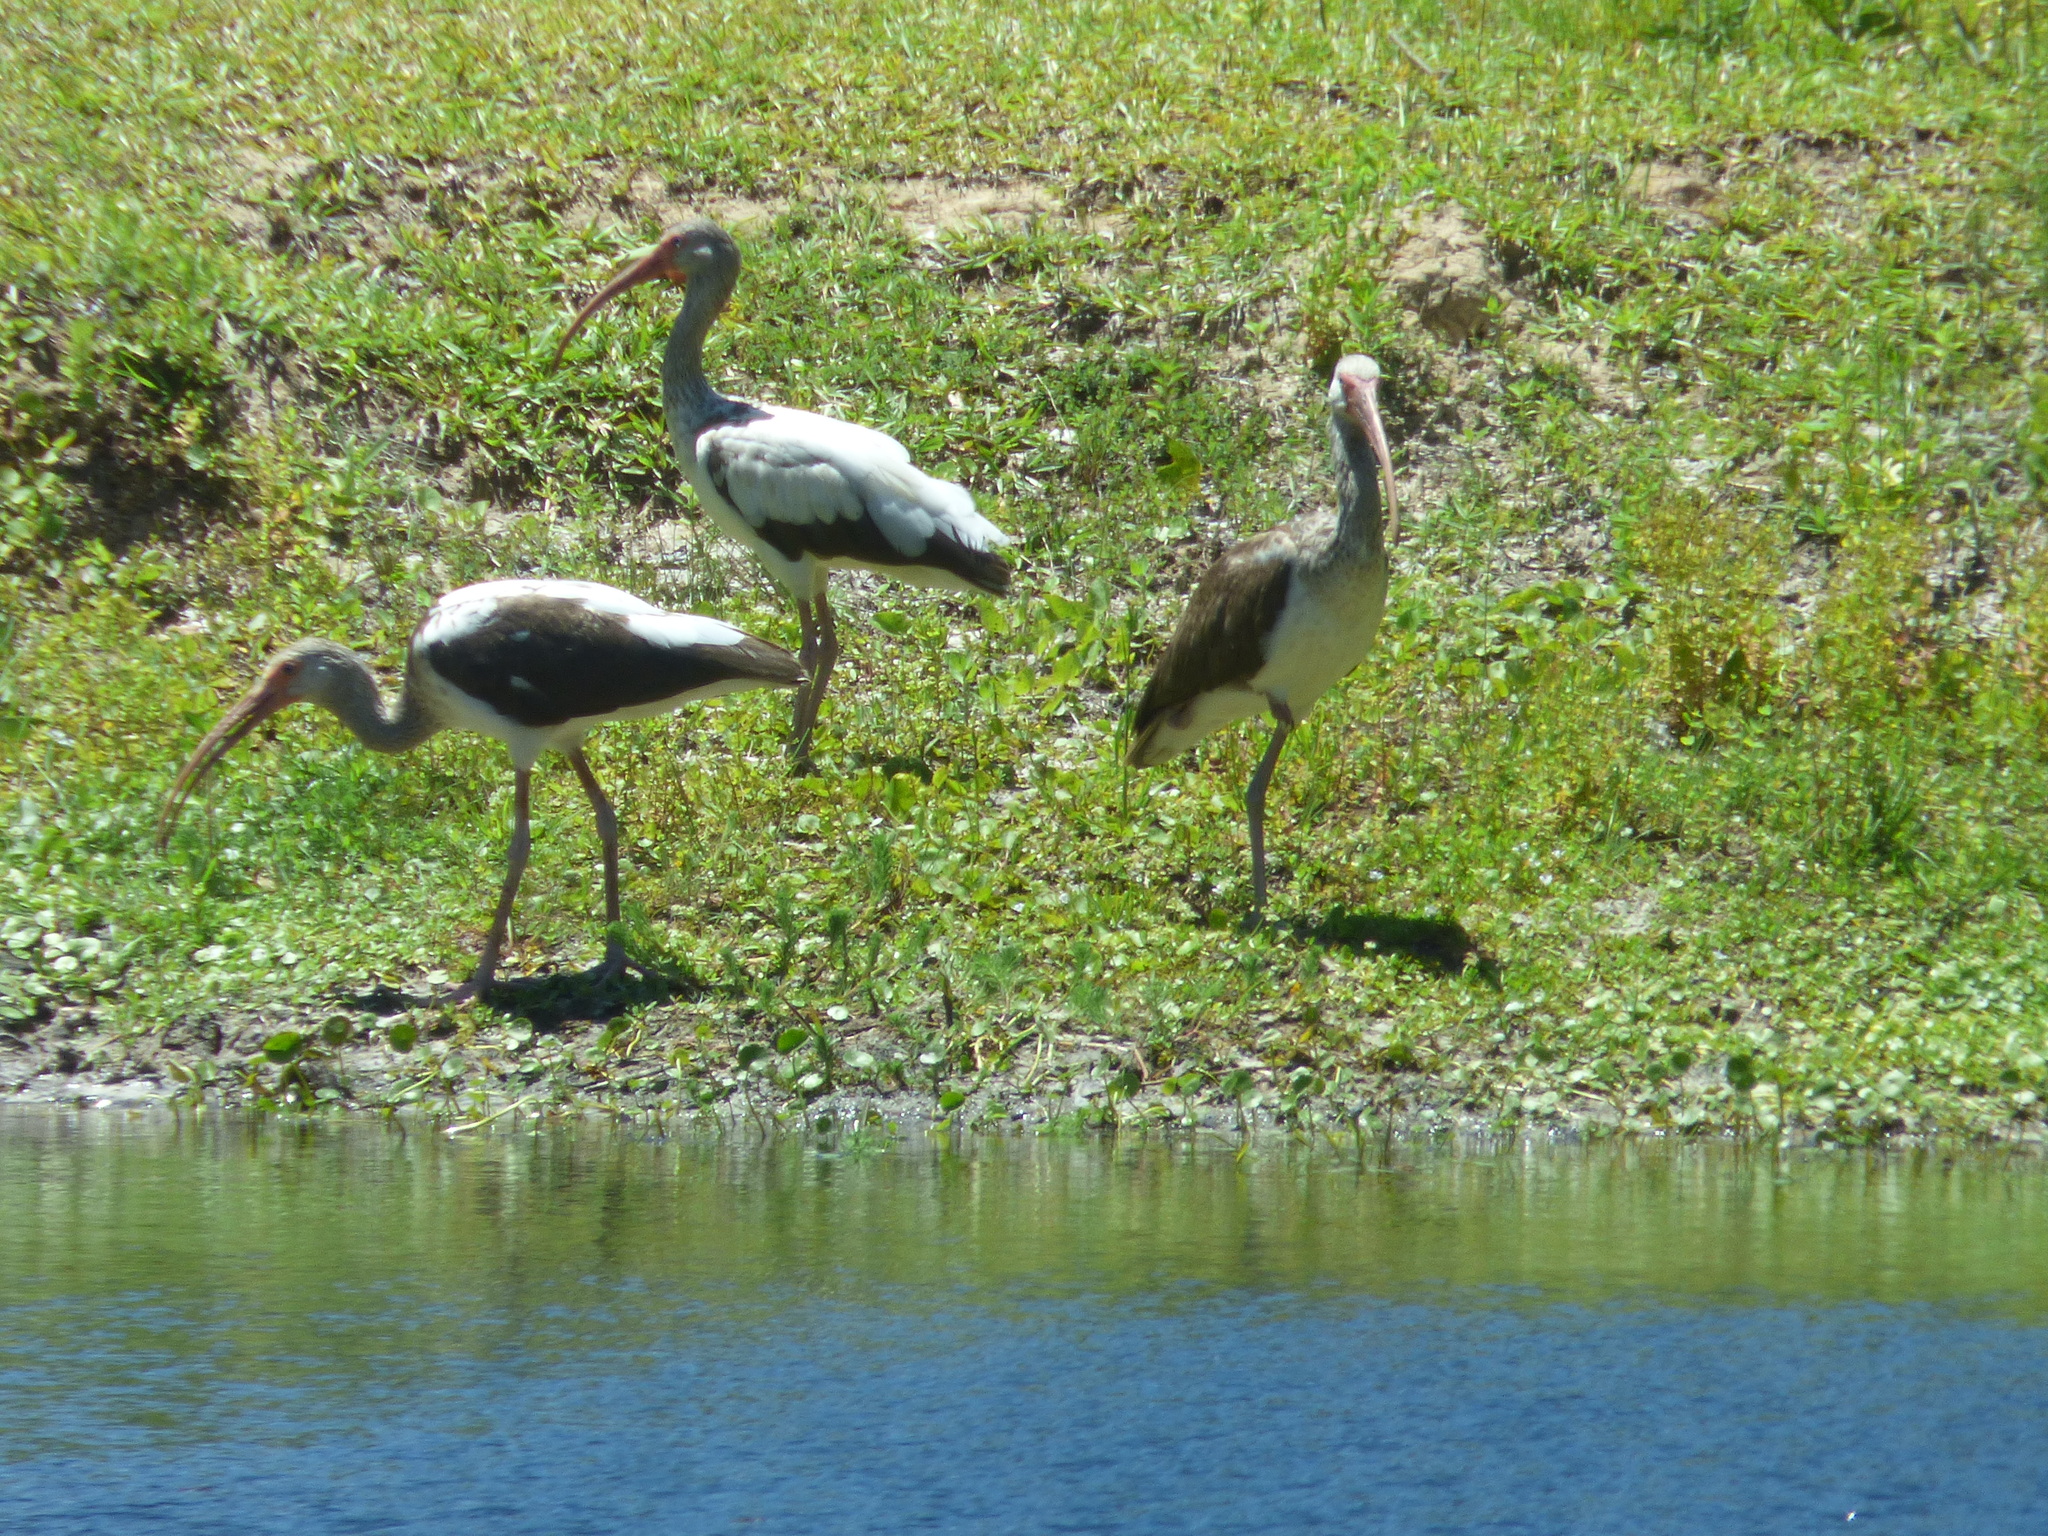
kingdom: Animalia
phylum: Chordata
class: Aves
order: Pelecaniformes
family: Threskiornithidae
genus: Eudocimus
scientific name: Eudocimus albus
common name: White ibis
